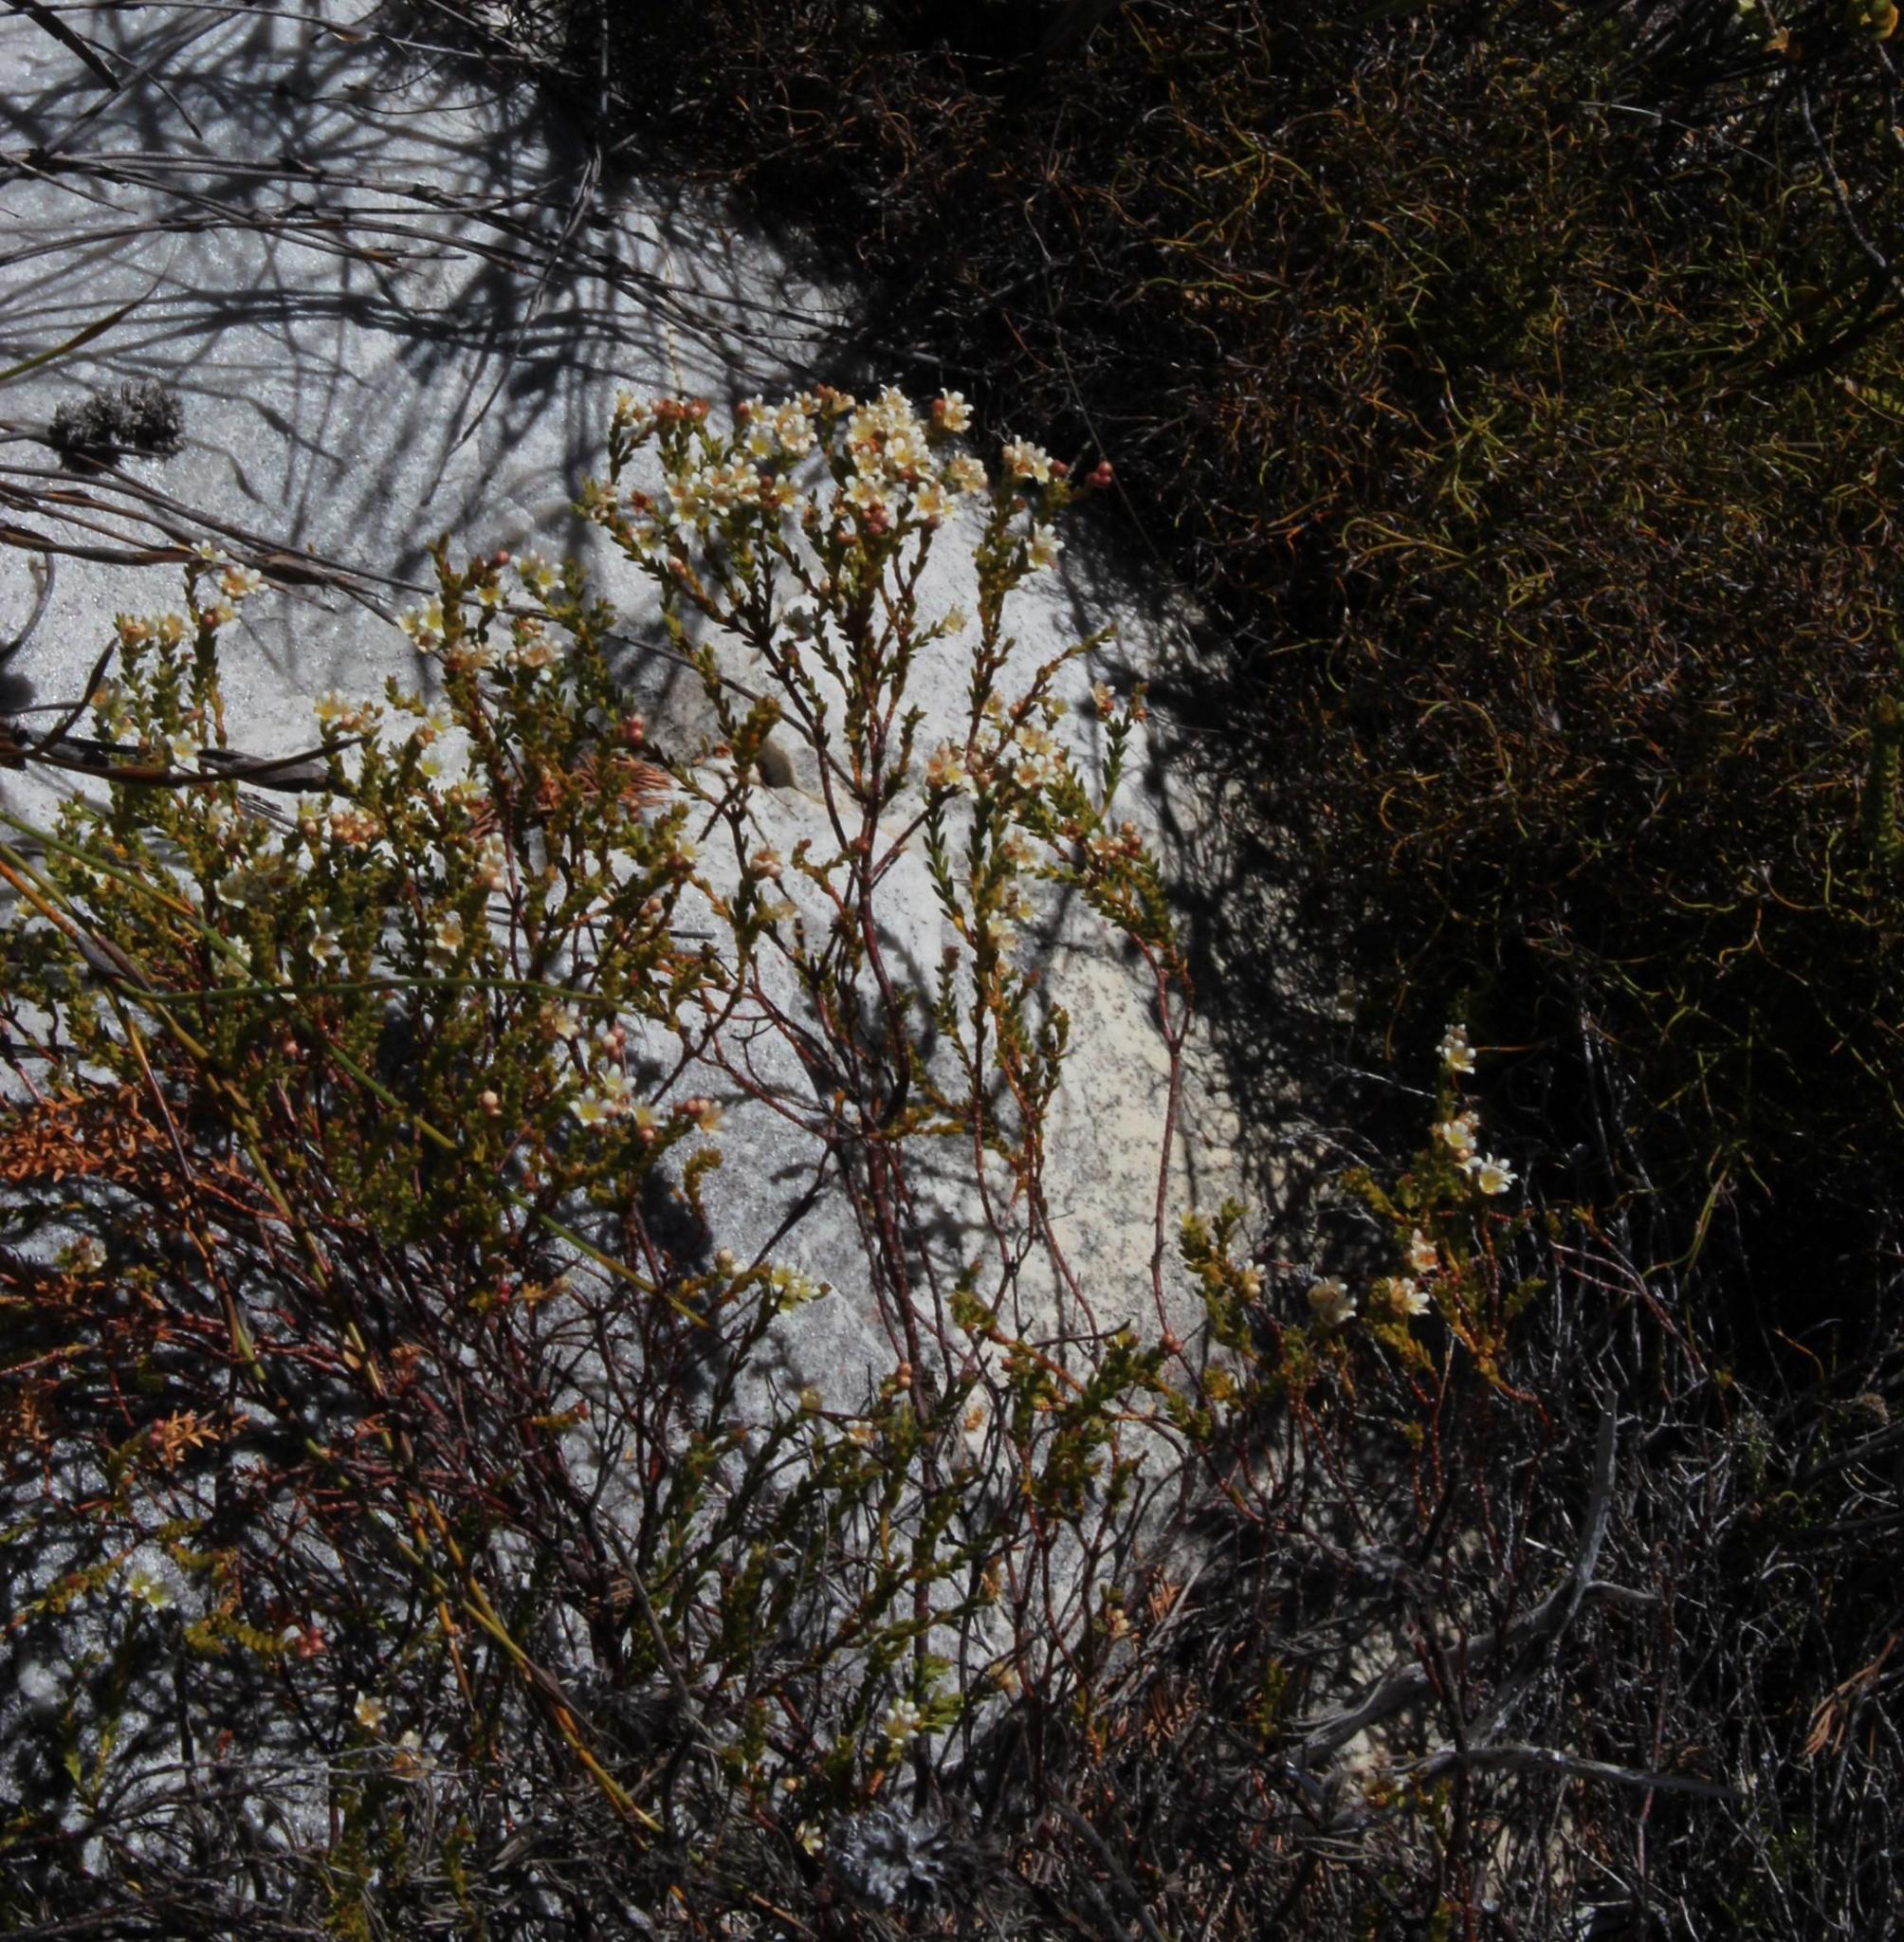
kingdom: Plantae
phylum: Tracheophyta
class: Magnoliopsida
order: Sapindales
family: Rutaceae
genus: Diosma
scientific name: Diosma oppositifolia
